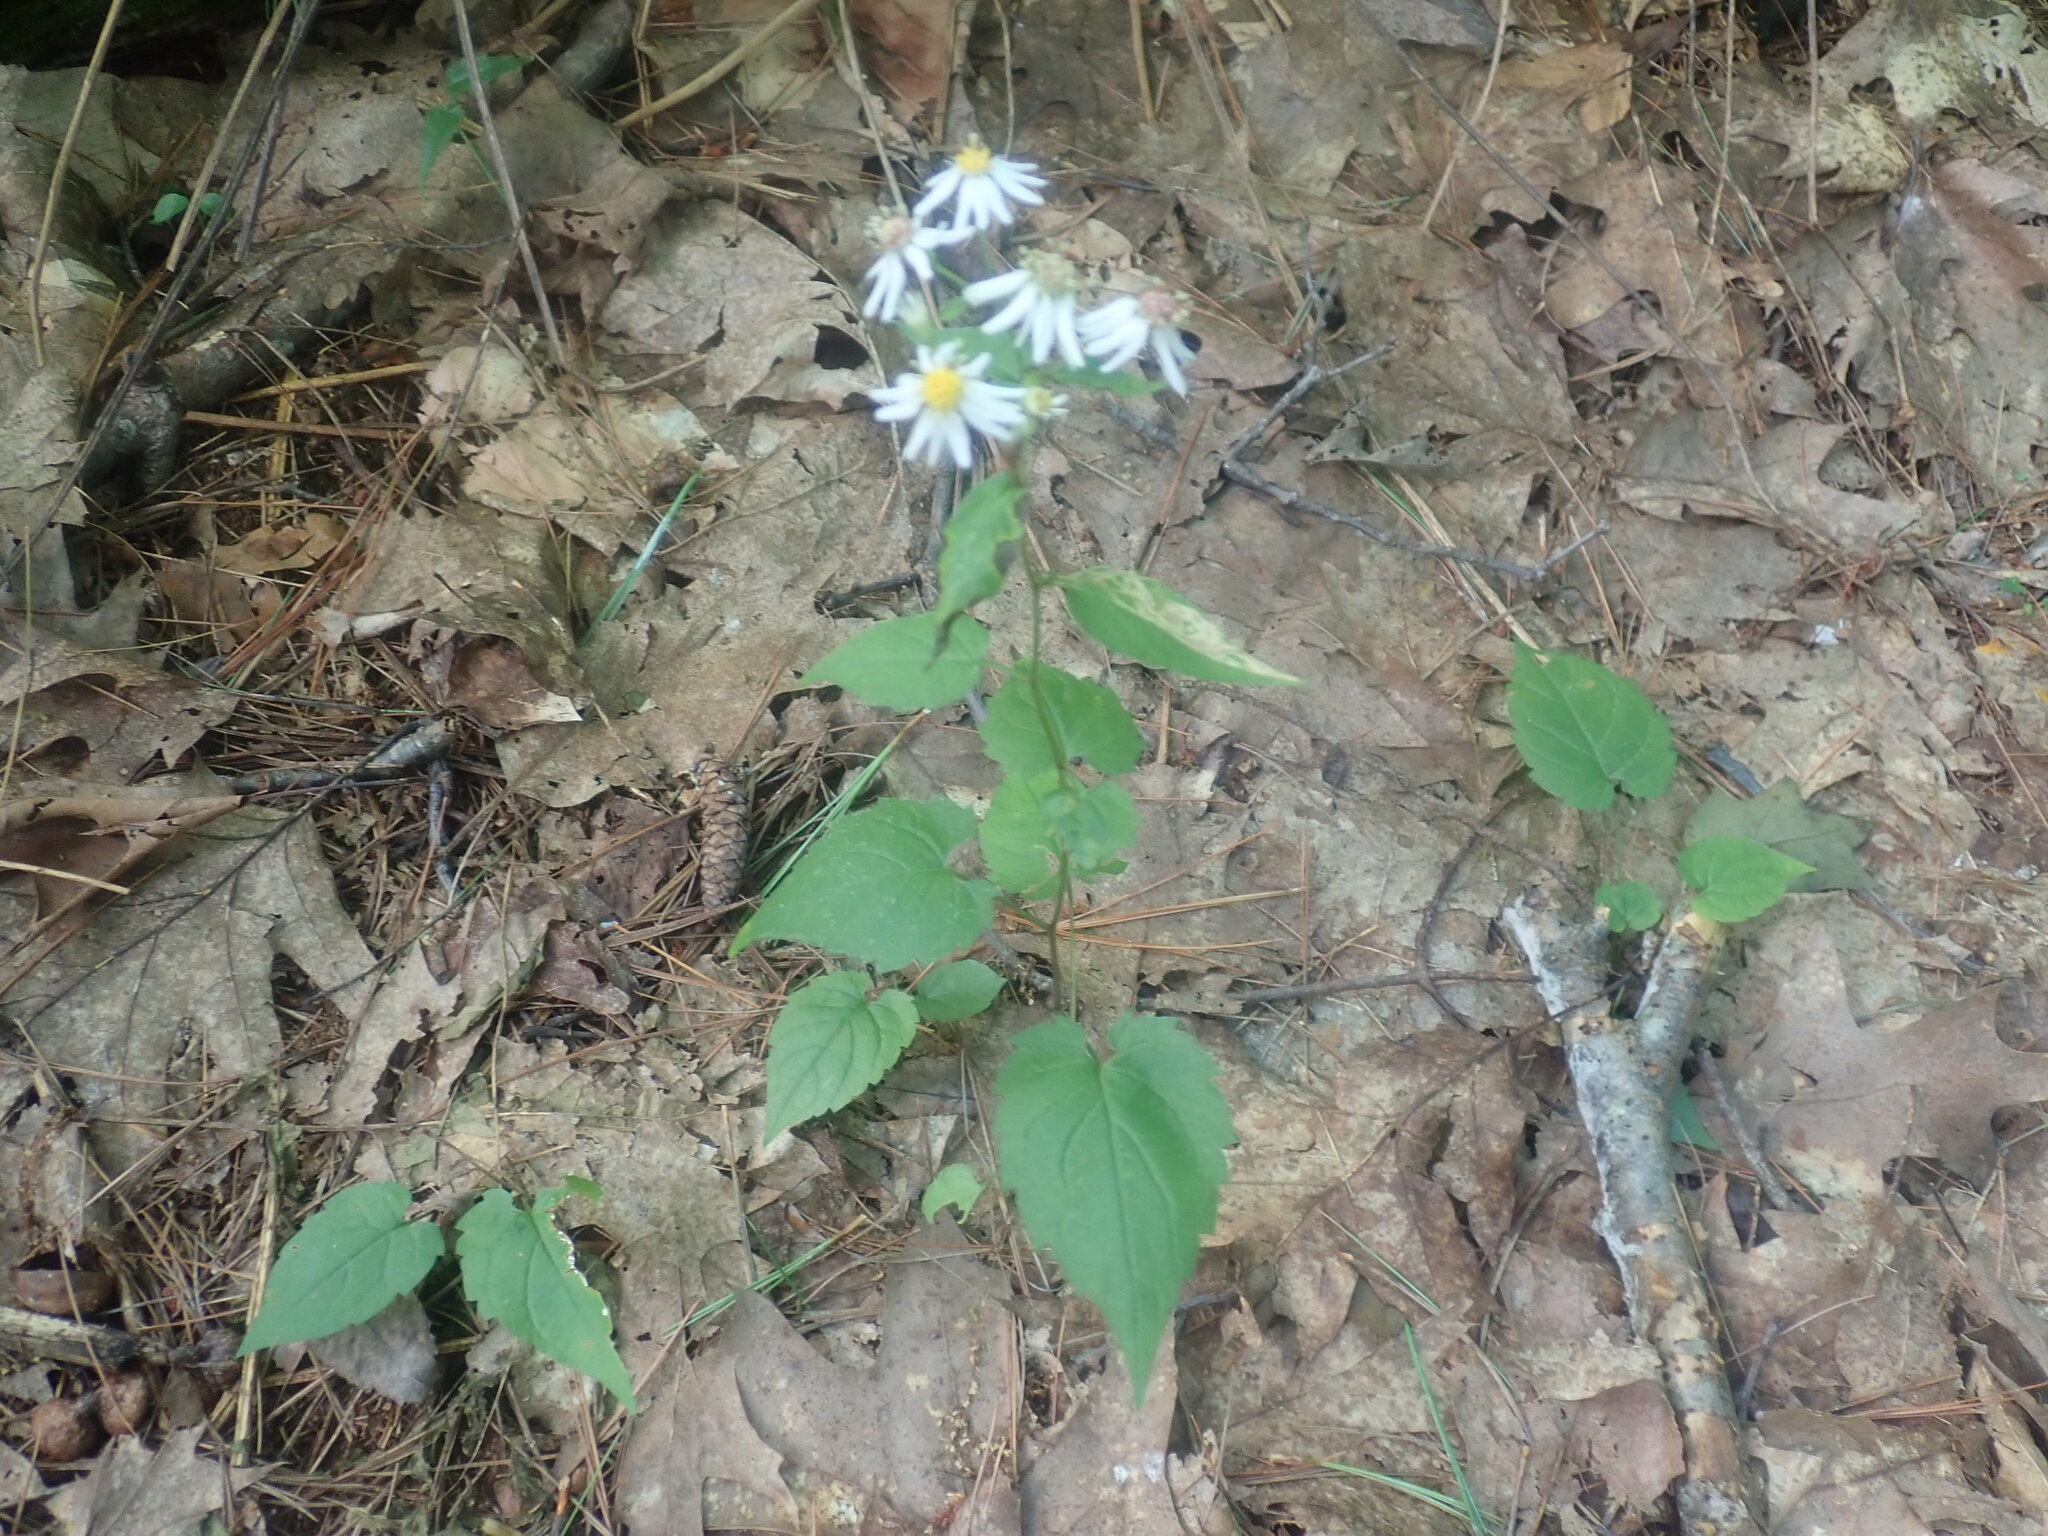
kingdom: Plantae
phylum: Tracheophyta
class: Magnoliopsida
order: Asterales
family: Asteraceae
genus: Eurybia
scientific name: Eurybia divaricata
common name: White wood aster
